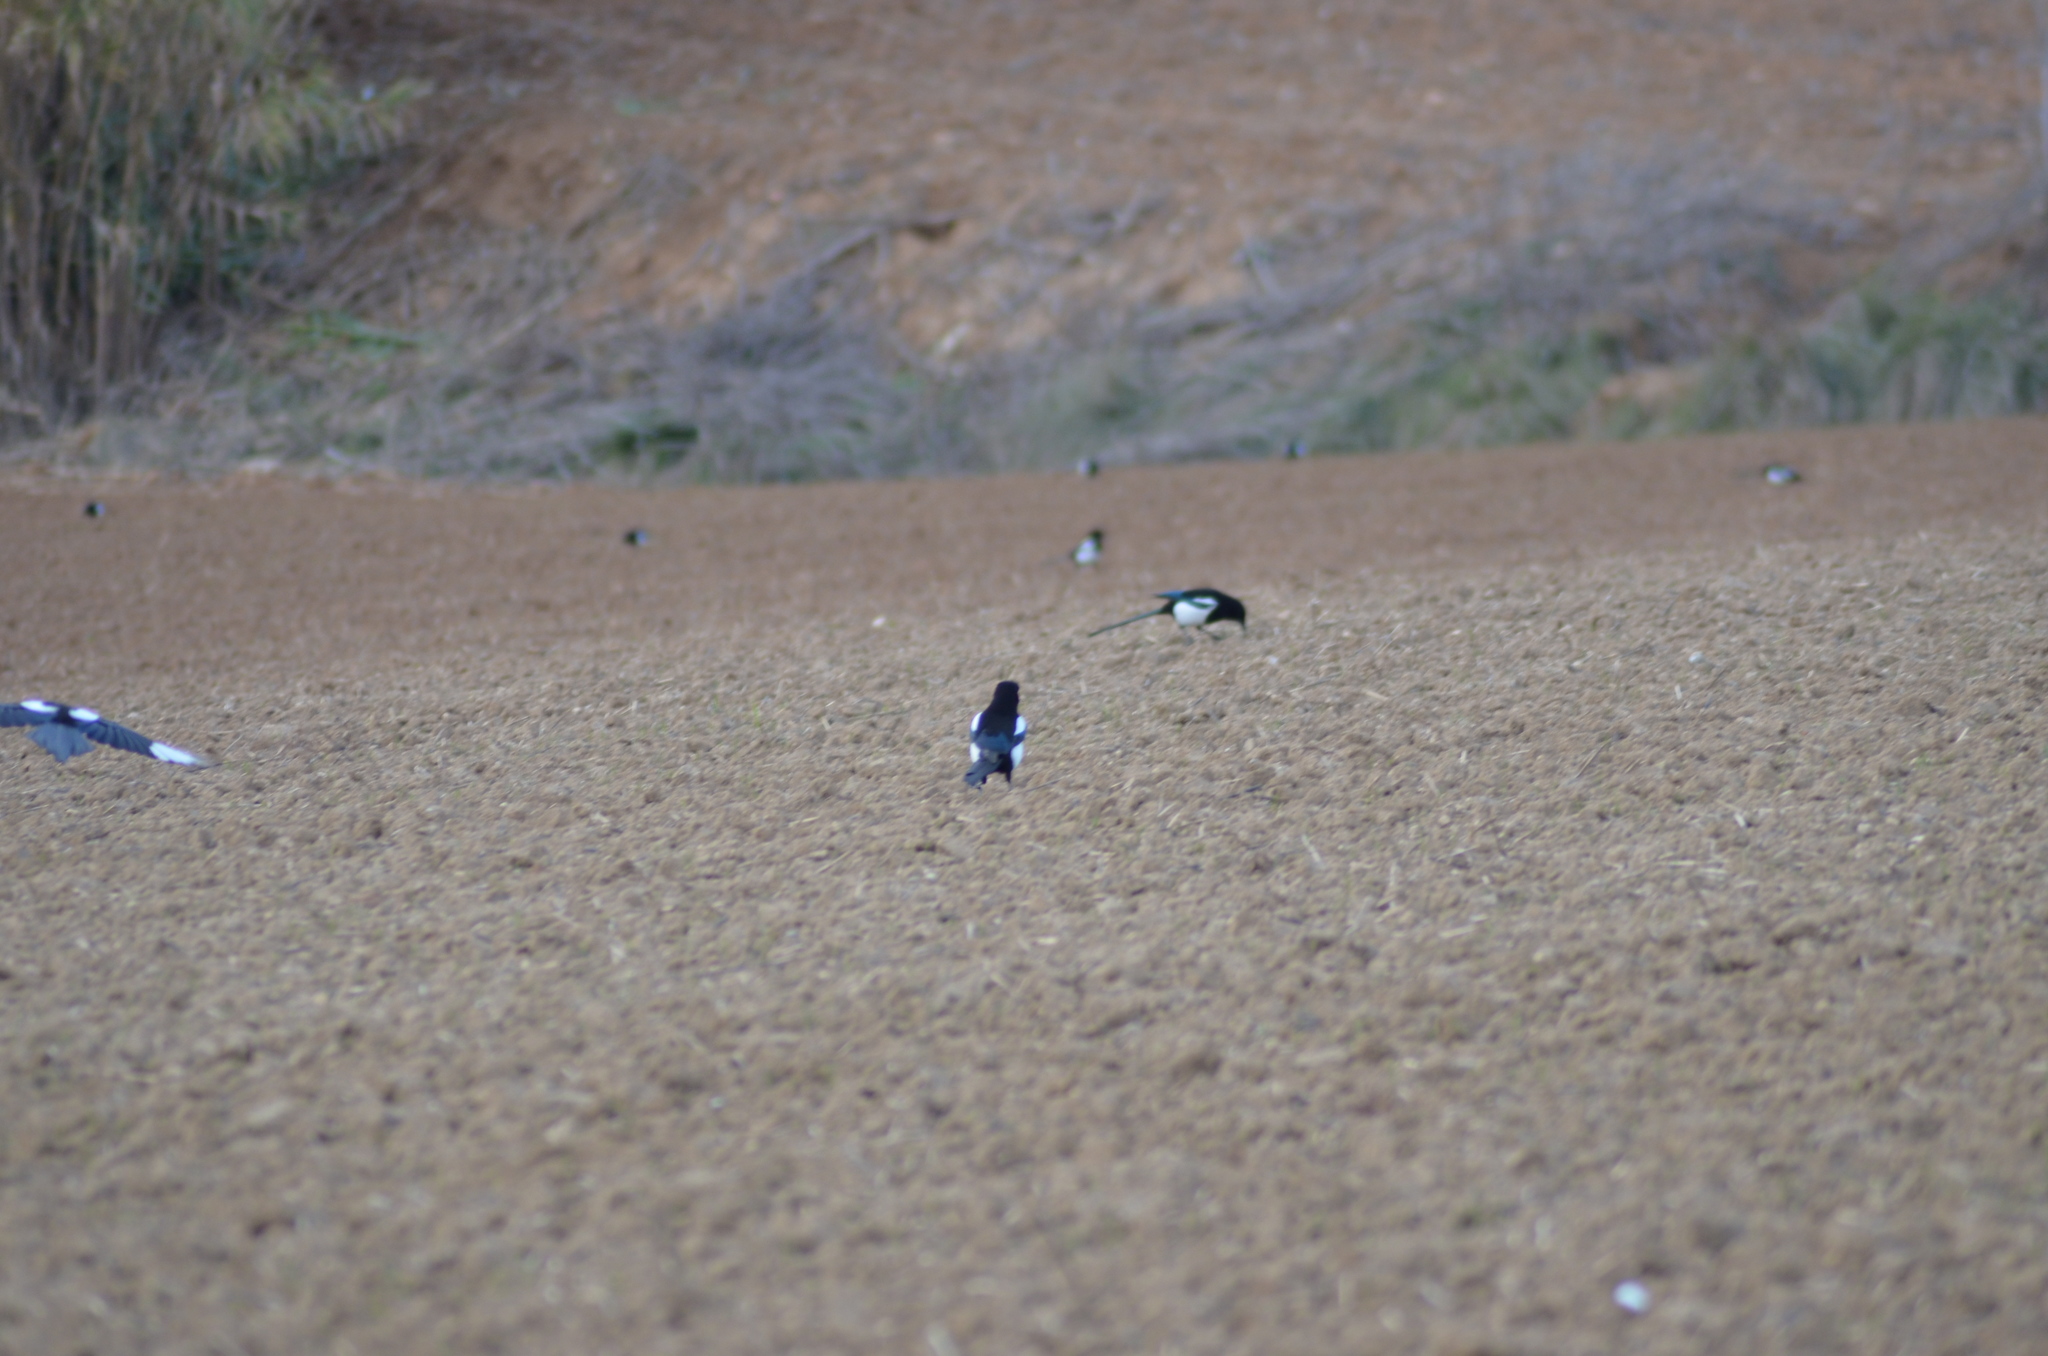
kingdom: Animalia
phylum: Chordata
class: Aves
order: Passeriformes
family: Corvidae
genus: Pica
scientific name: Pica pica
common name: Eurasian magpie
